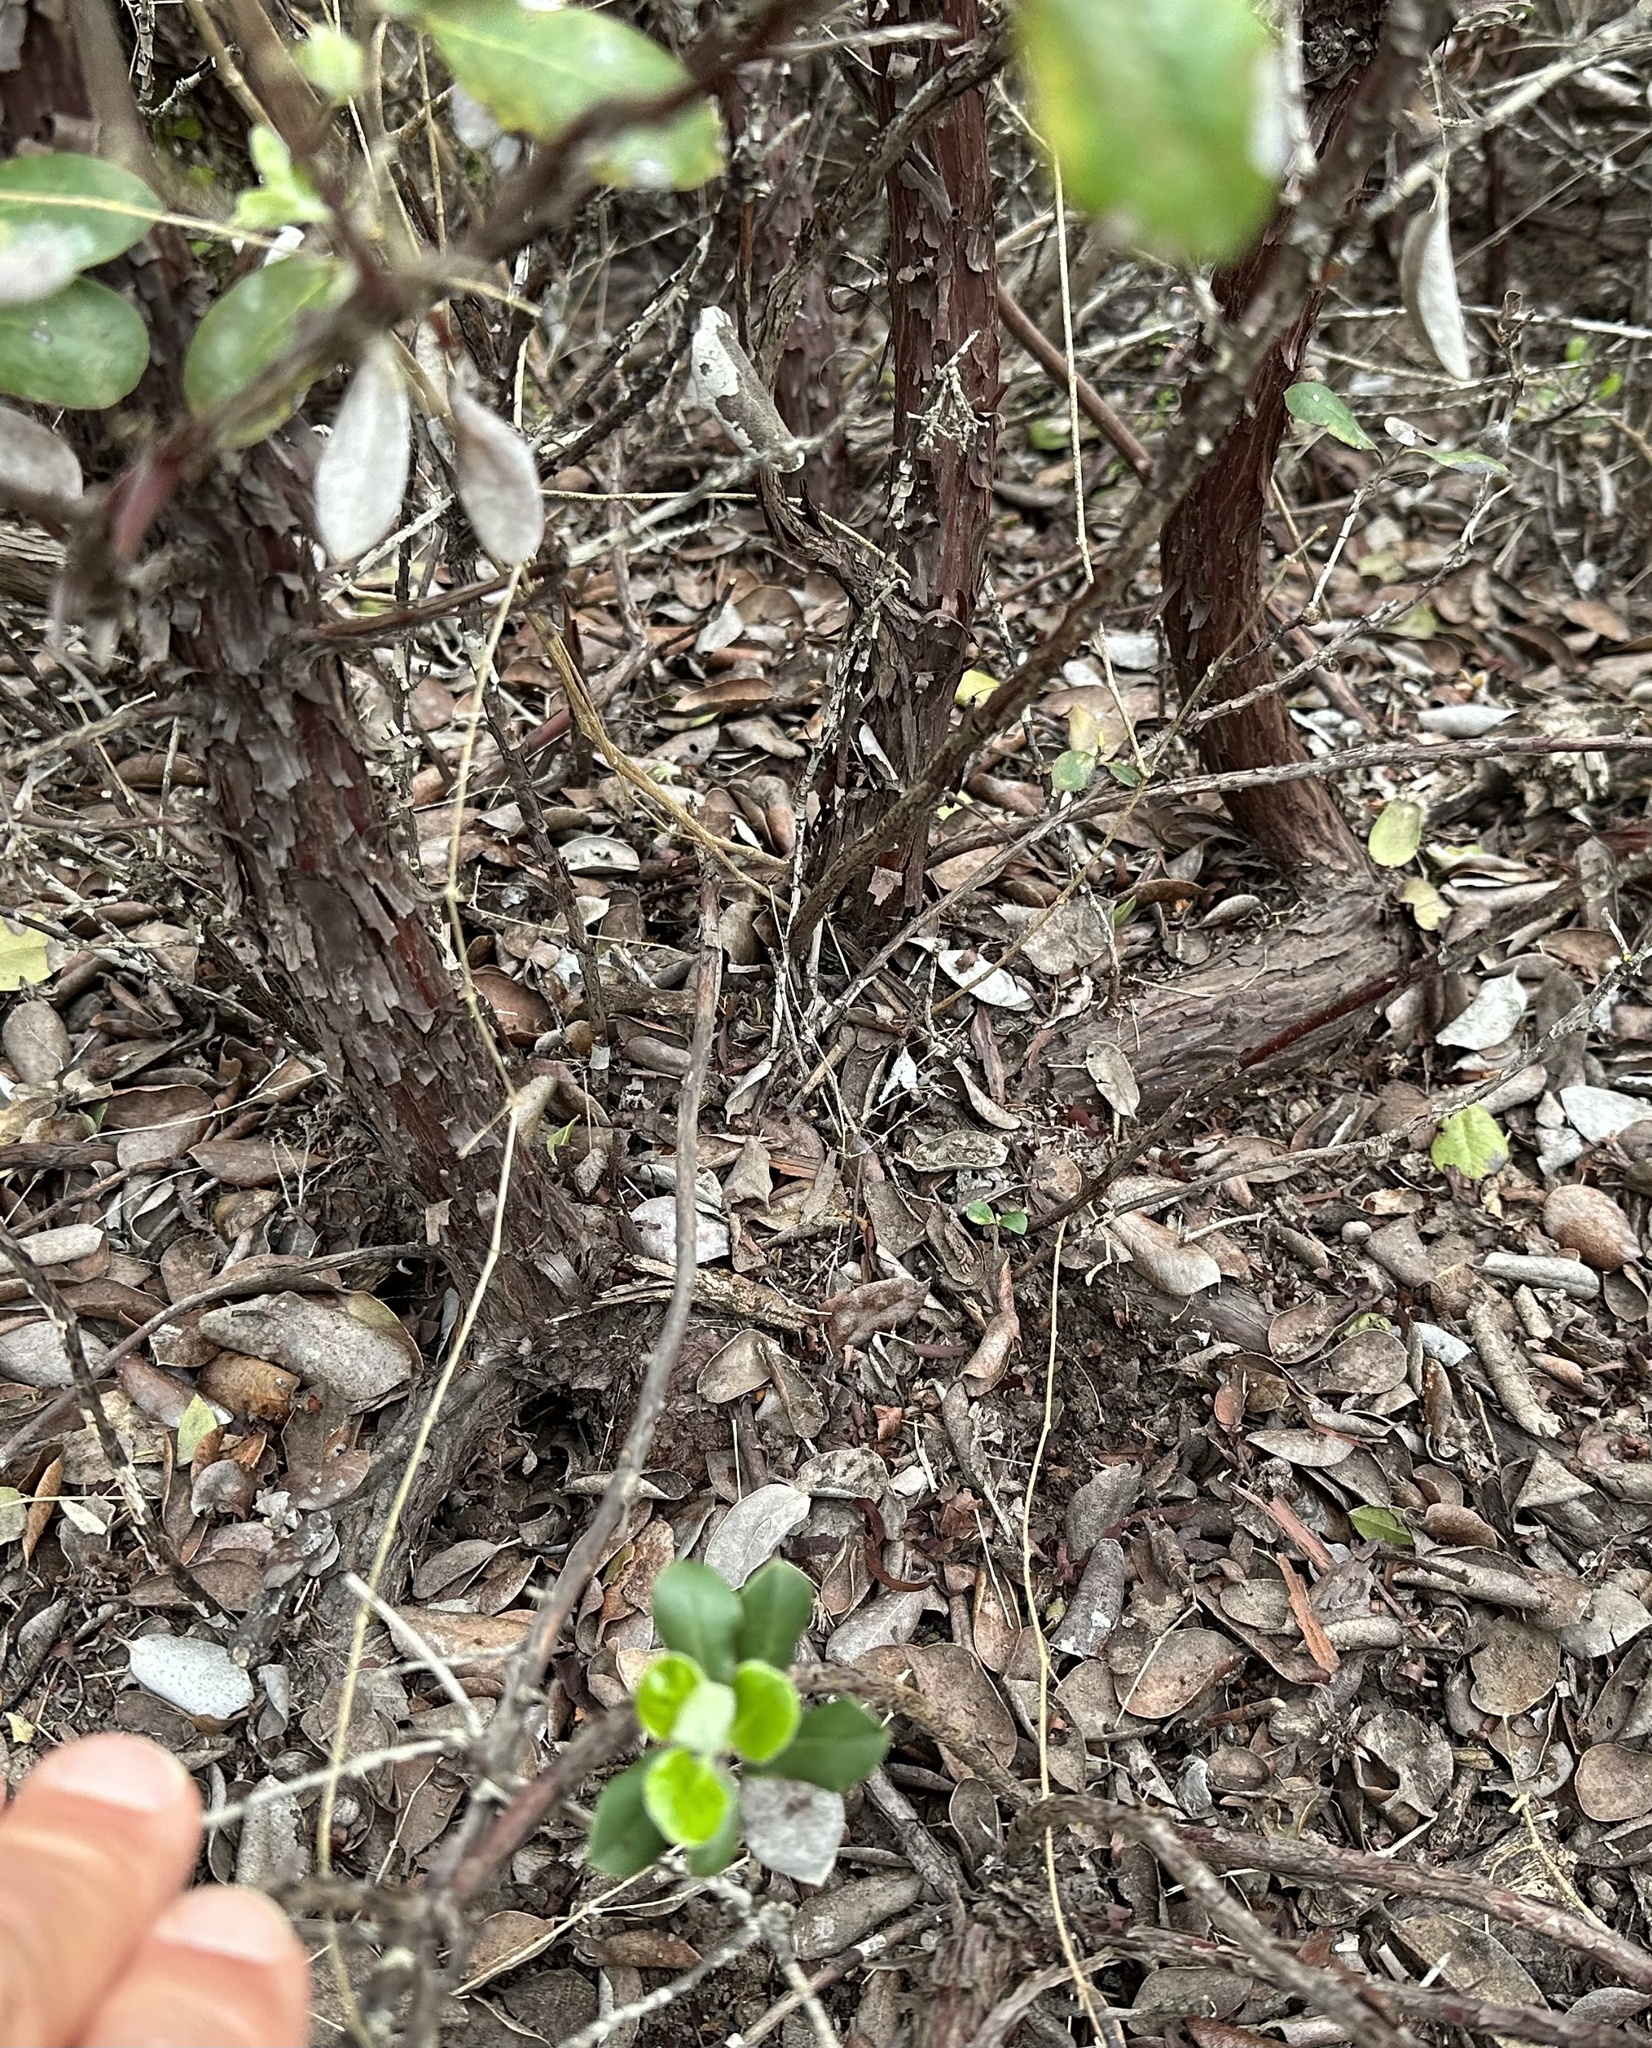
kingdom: Plantae
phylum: Tracheophyta
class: Magnoliopsida
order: Ericales
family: Ericaceae
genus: Arctostaphylos
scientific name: Arctostaphylos tomentosa
